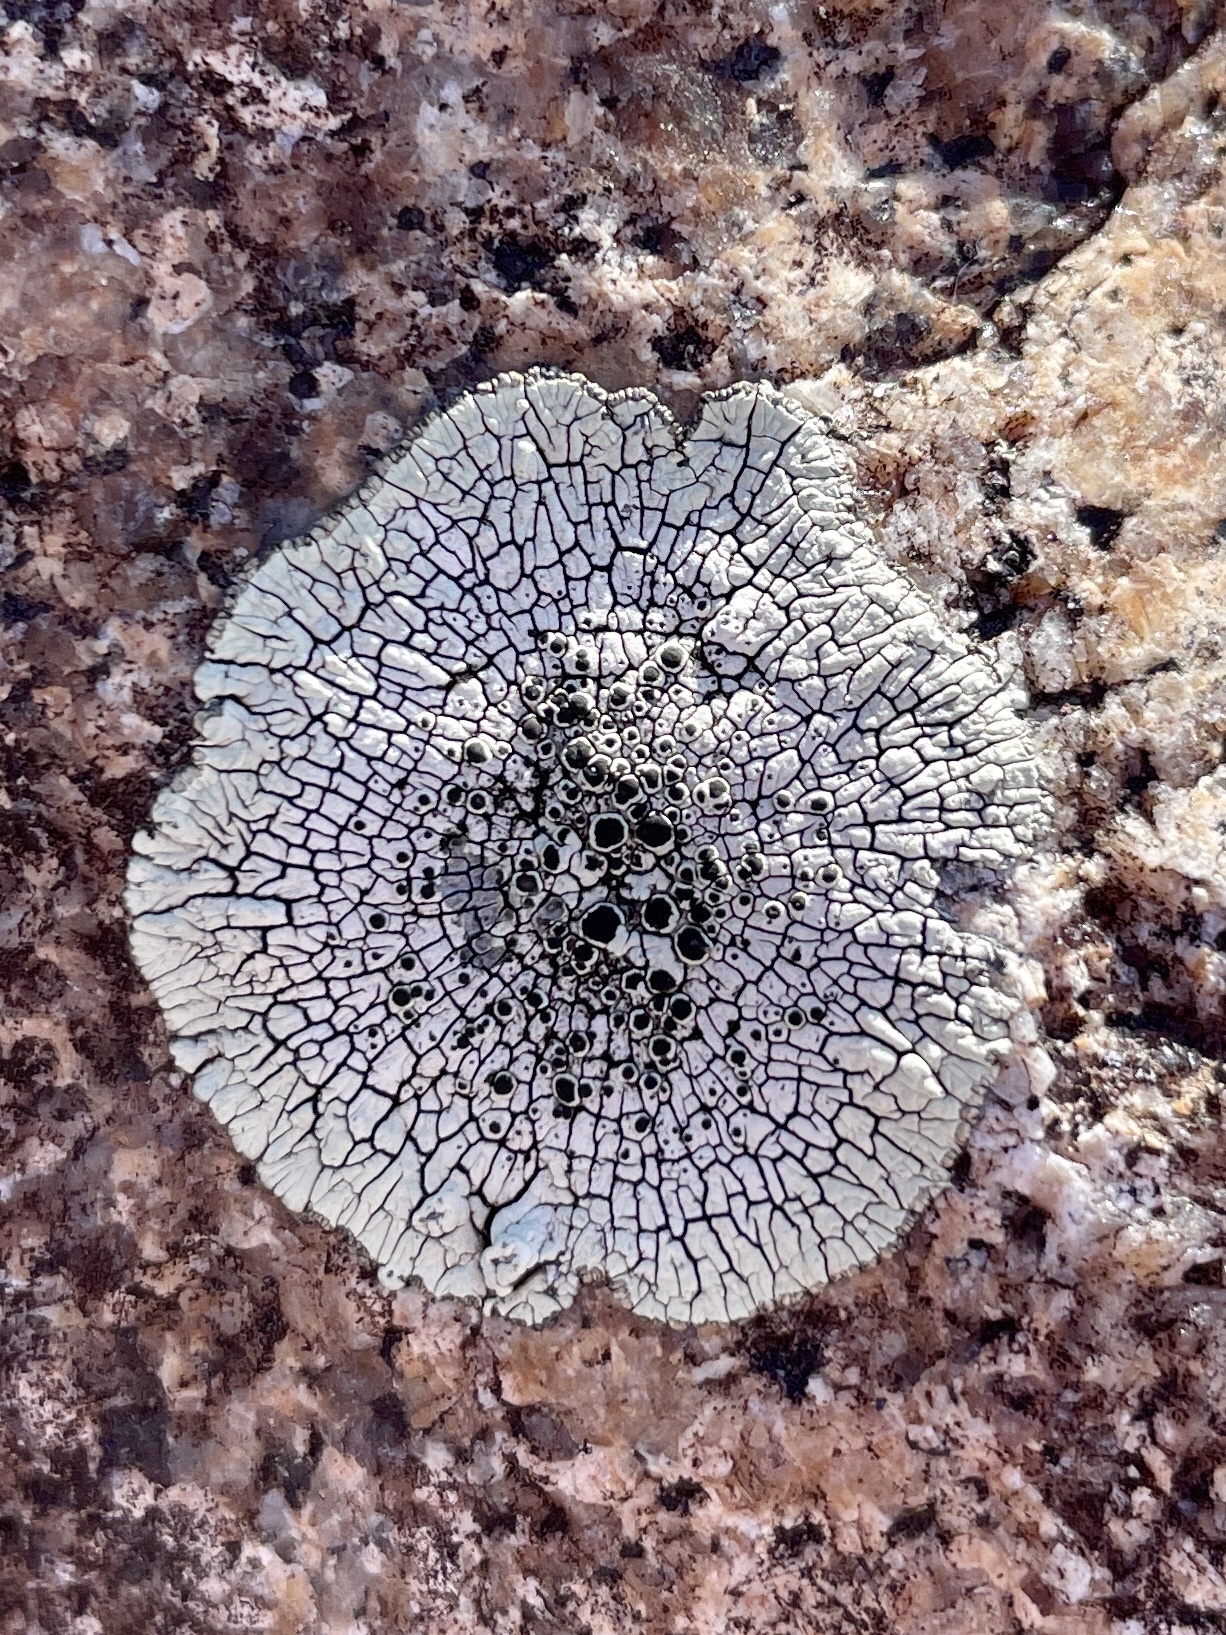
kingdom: Fungi
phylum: Ascomycota
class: Lecanoromycetes
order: Caliciales
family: Caliciaceae
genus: Dimelaena
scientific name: Dimelaena oreina
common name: Golden moonglow lichen
